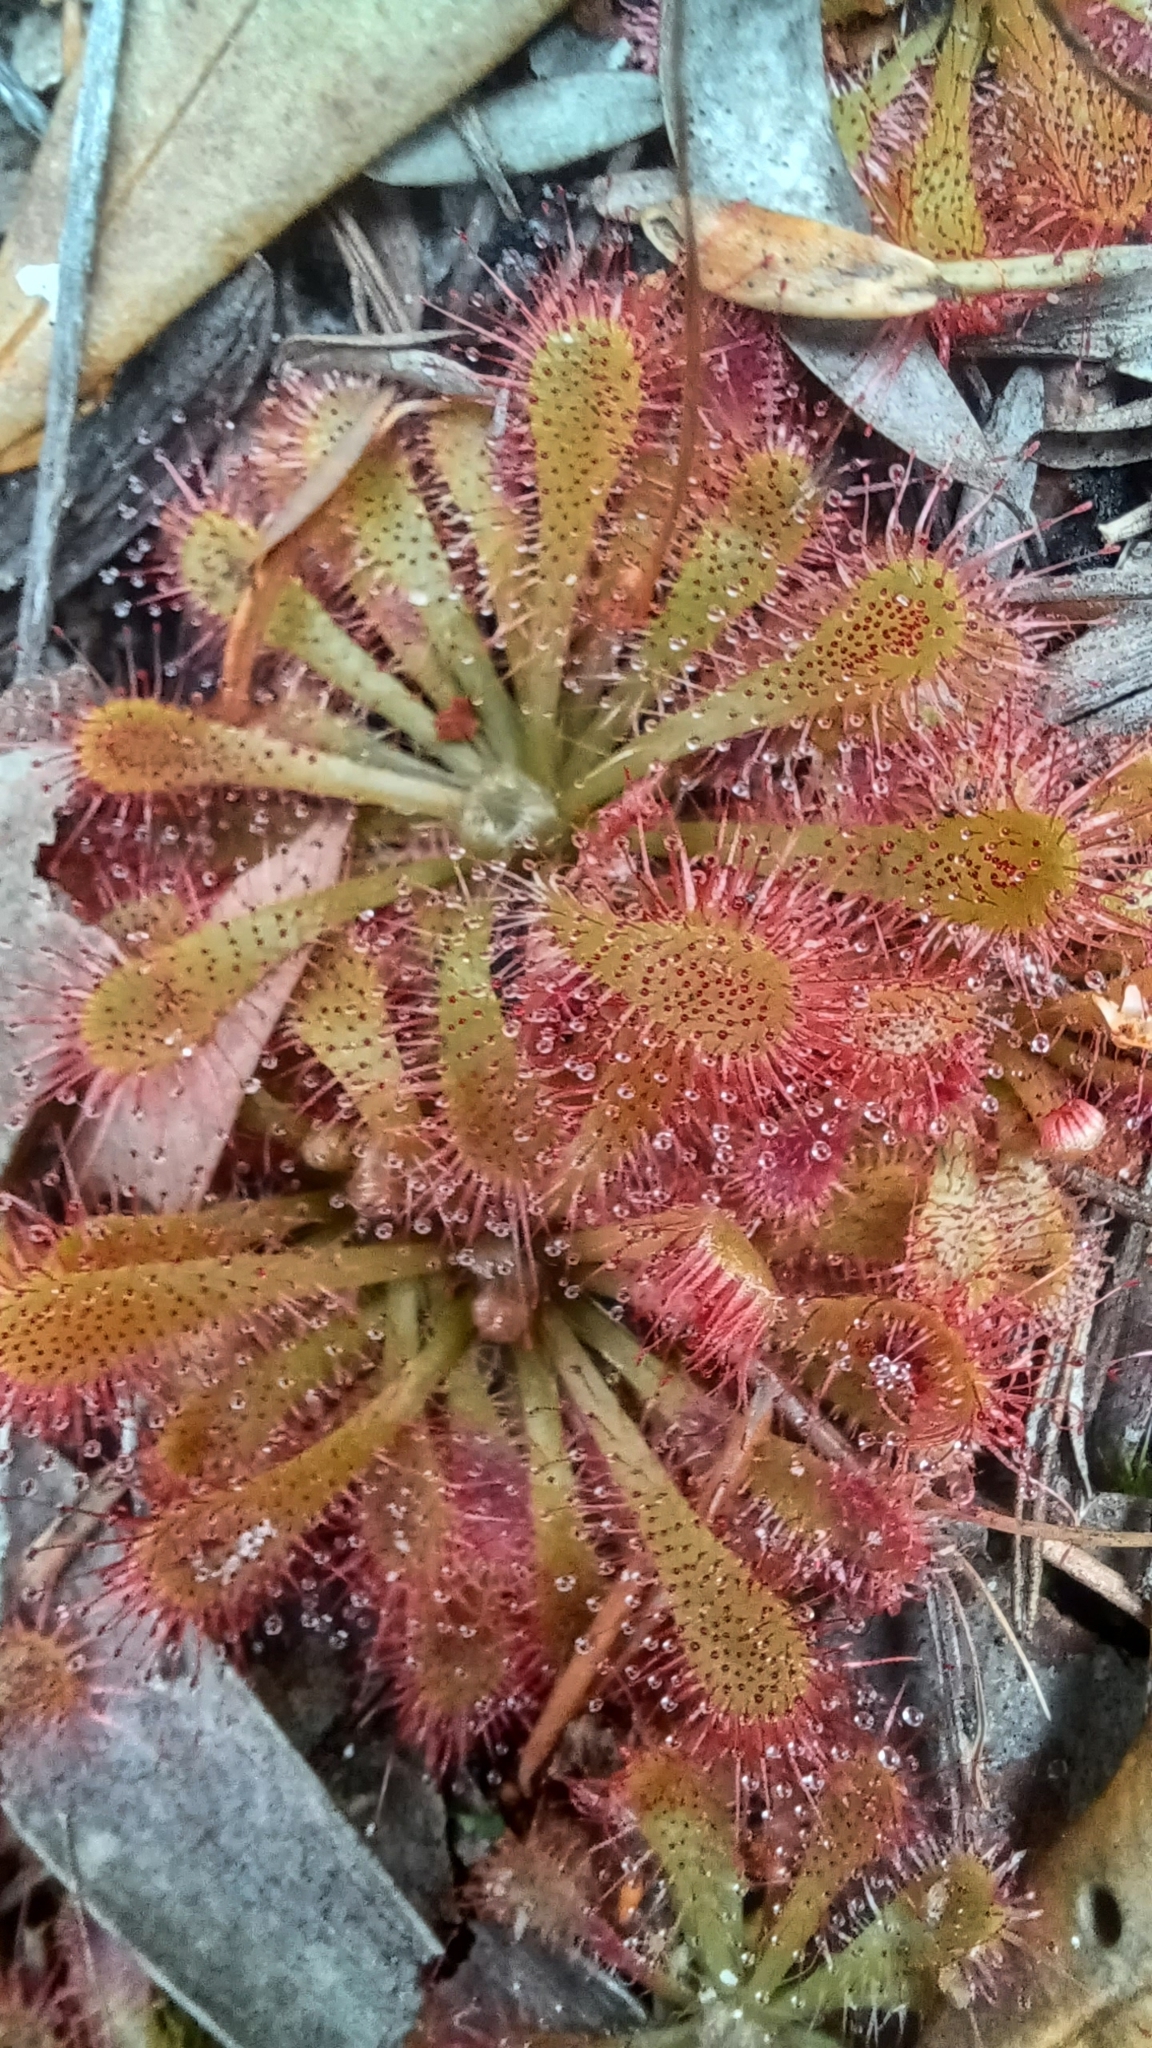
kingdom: Plantae
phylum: Tracheophyta
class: Magnoliopsida
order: Caryophyllales
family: Droseraceae
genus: Drosera
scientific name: Drosera spatulata
